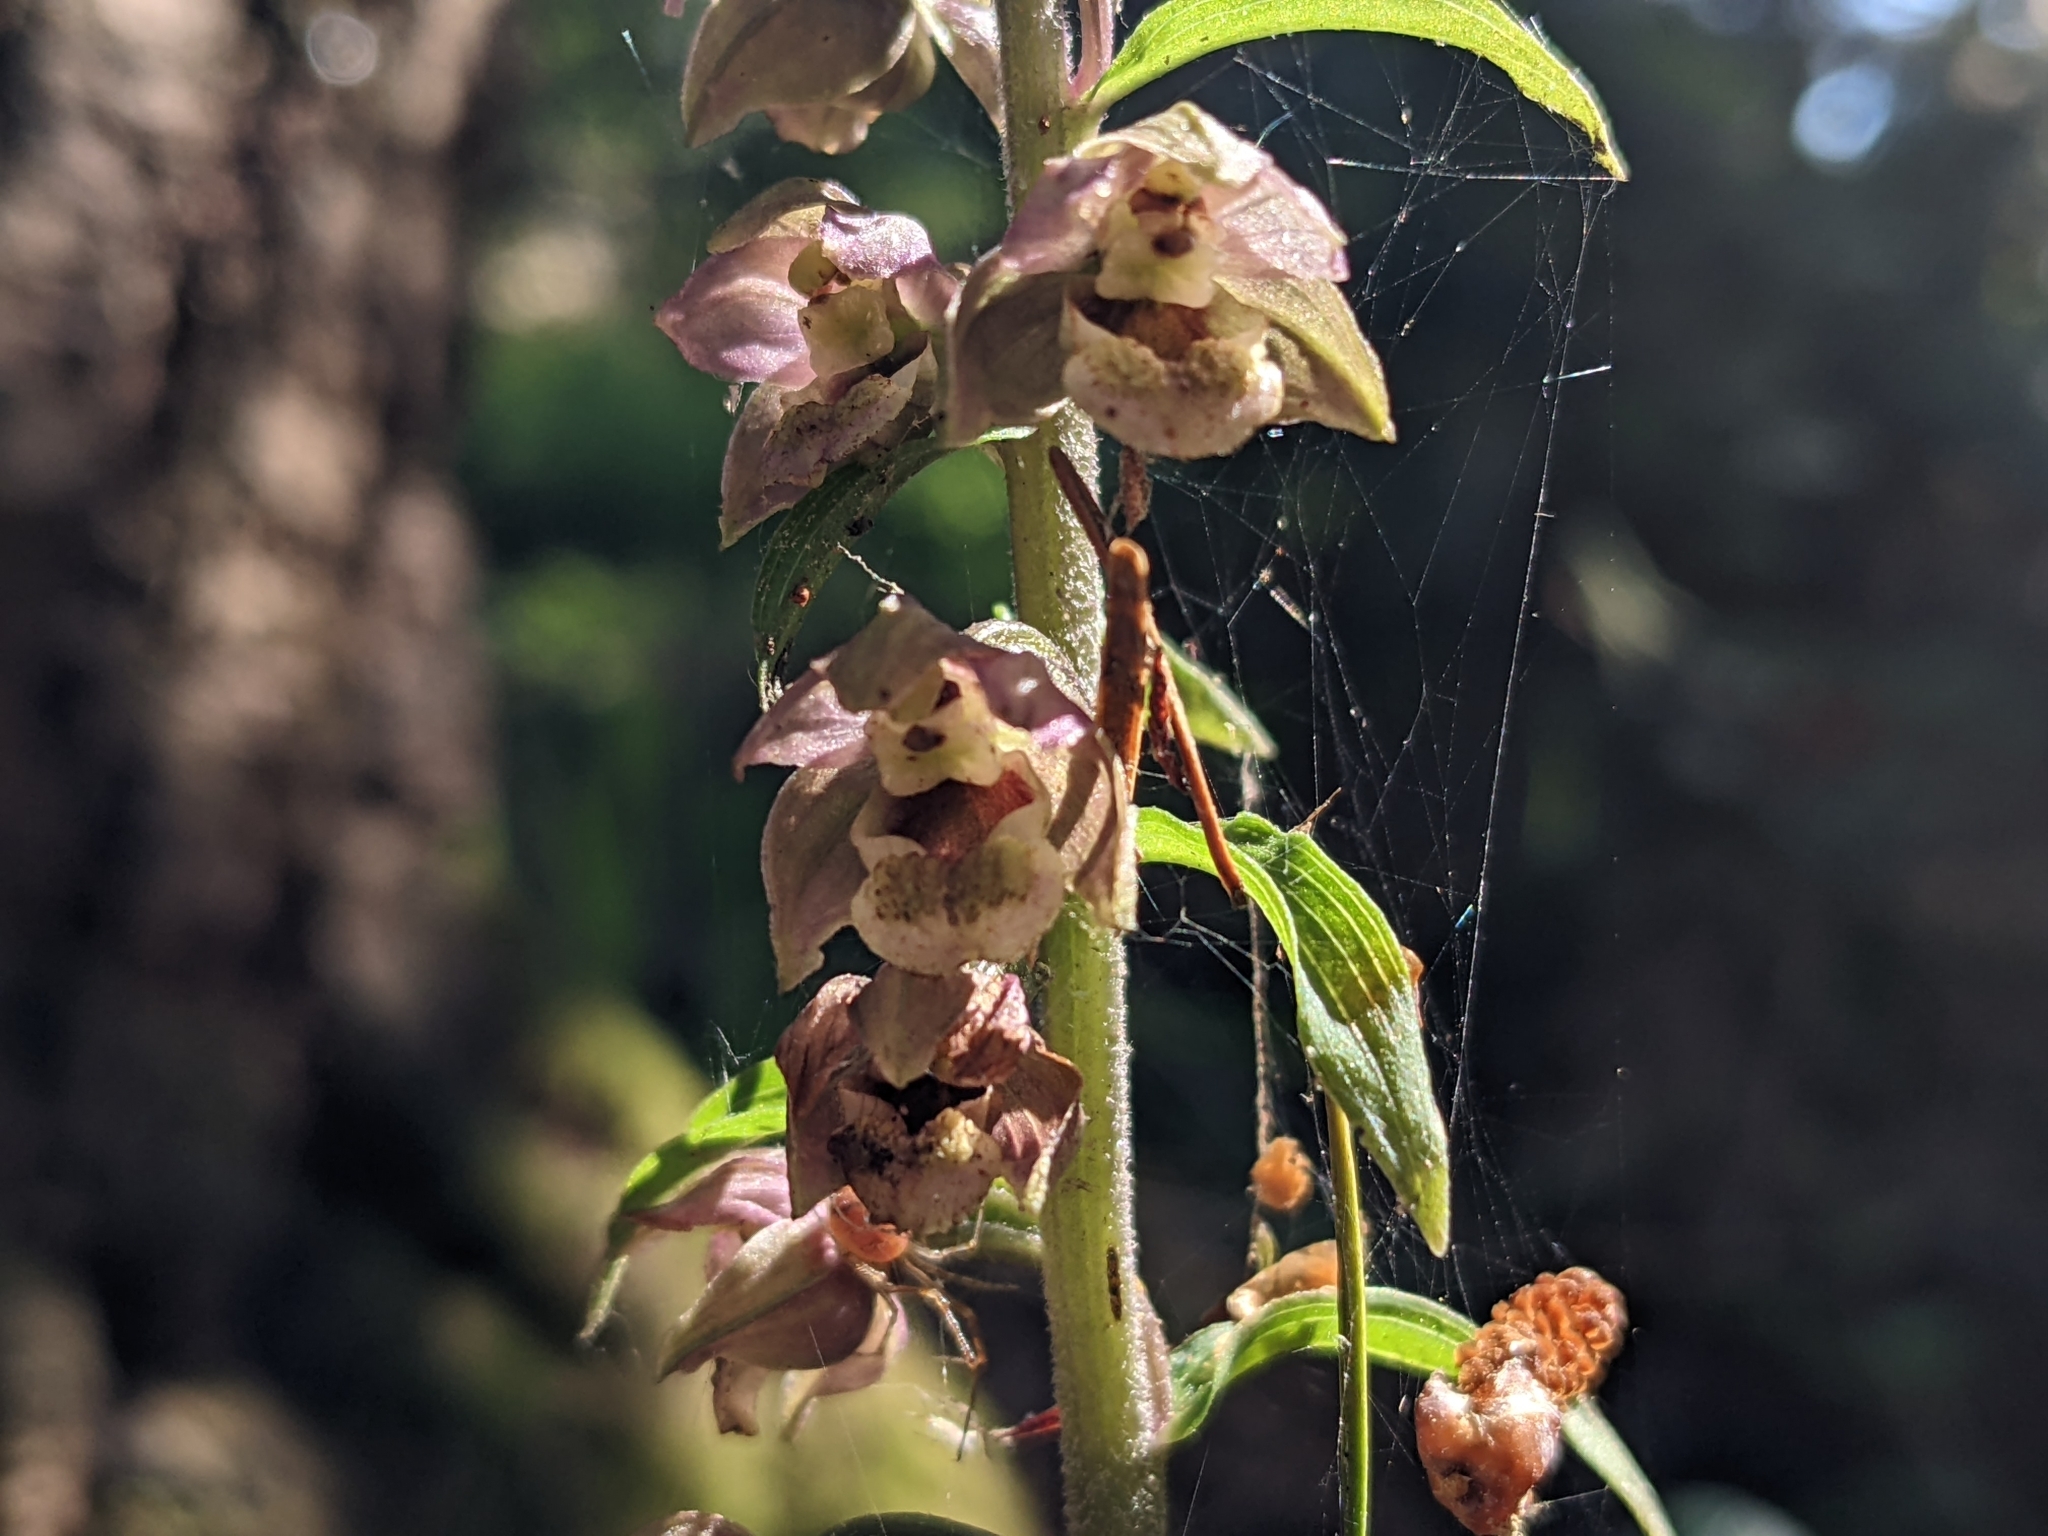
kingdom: Plantae
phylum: Tracheophyta
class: Liliopsida
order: Asparagales
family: Orchidaceae
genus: Epipactis
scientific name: Epipactis helleborine
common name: Broad-leaved helleborine
